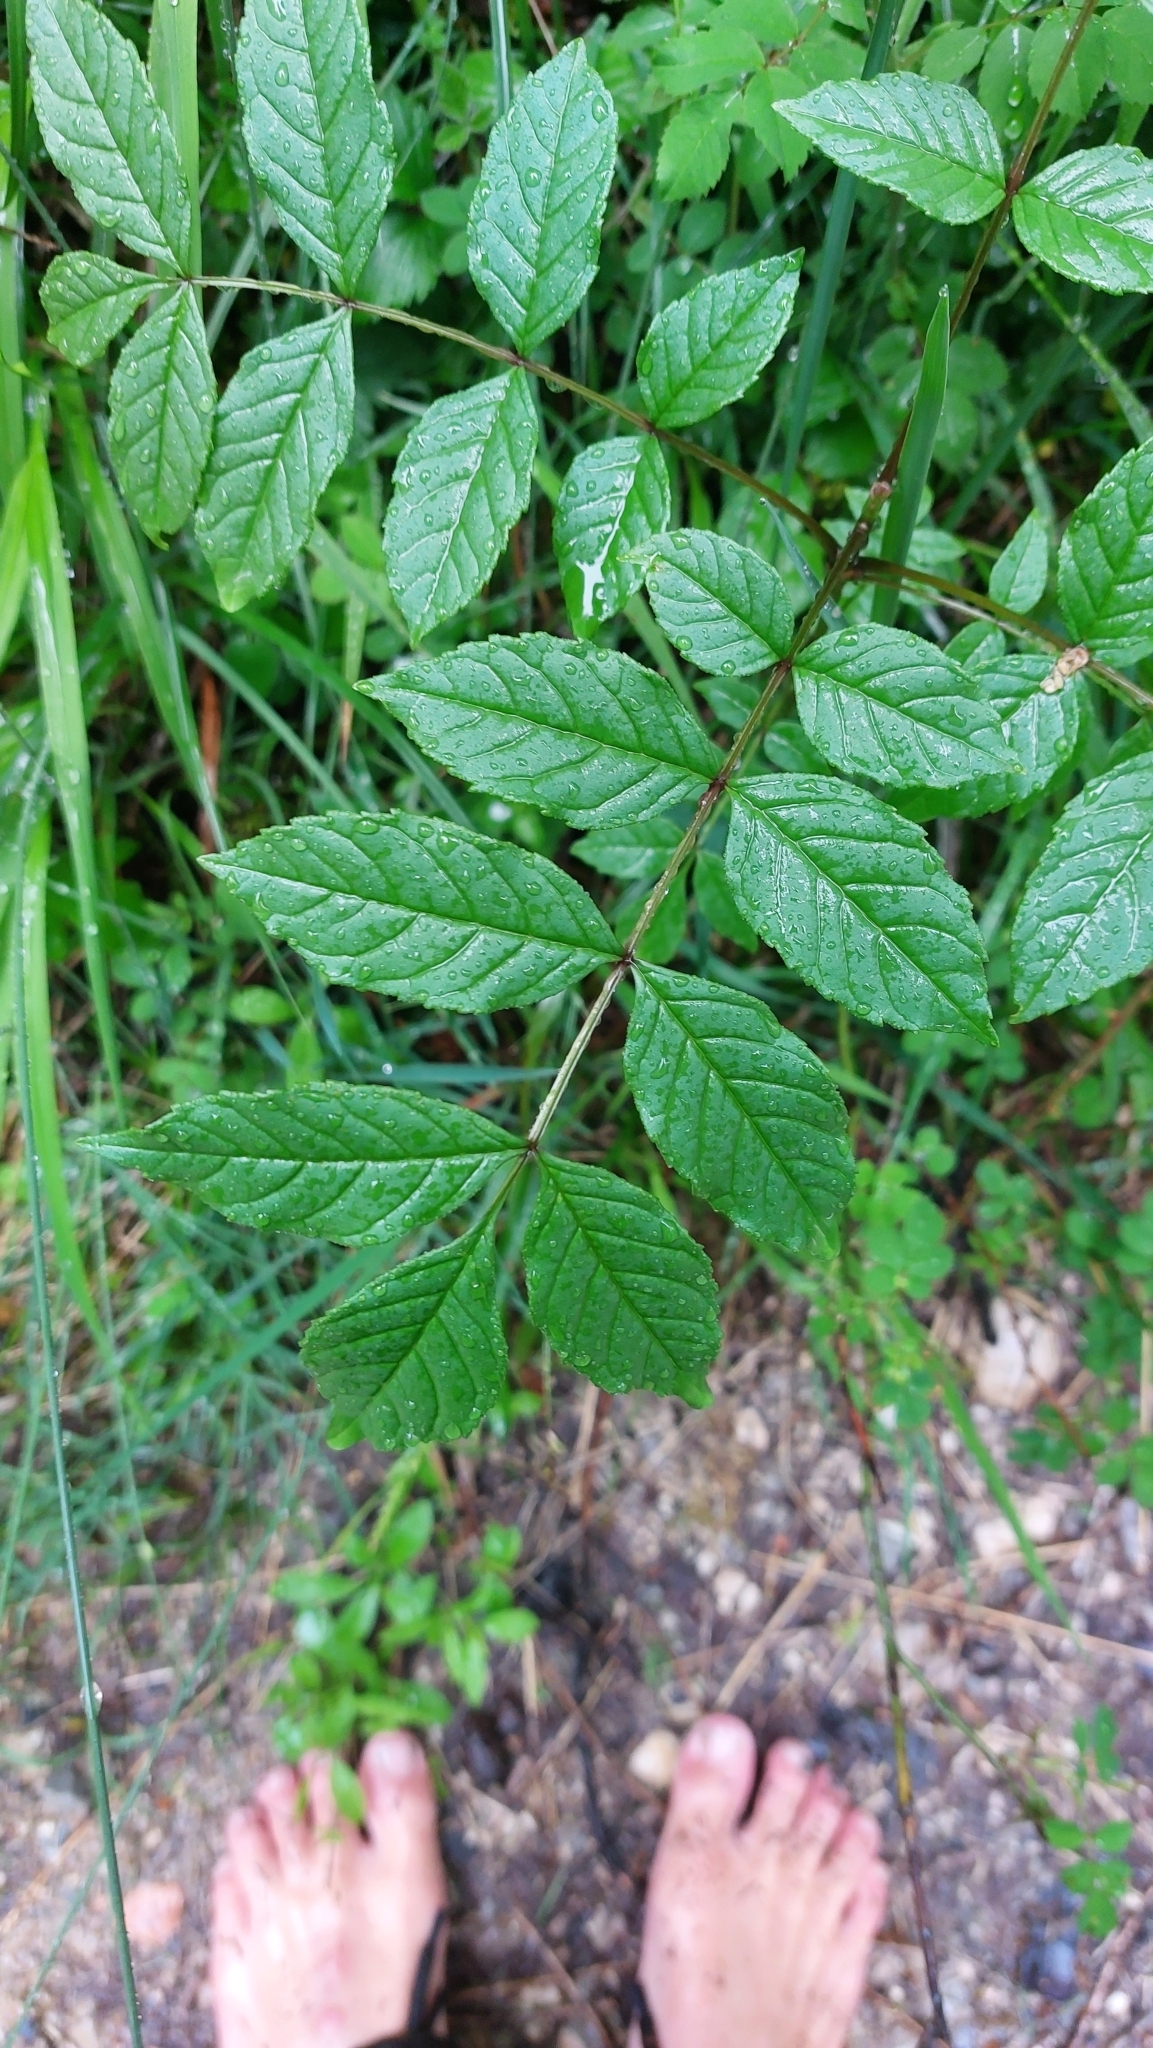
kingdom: Plantae
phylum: Tracheophyta
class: Magnoliopsida
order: Lamiales
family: Oleaceae
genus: Fraxinus
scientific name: Fraxinus excelsior
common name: European ash
